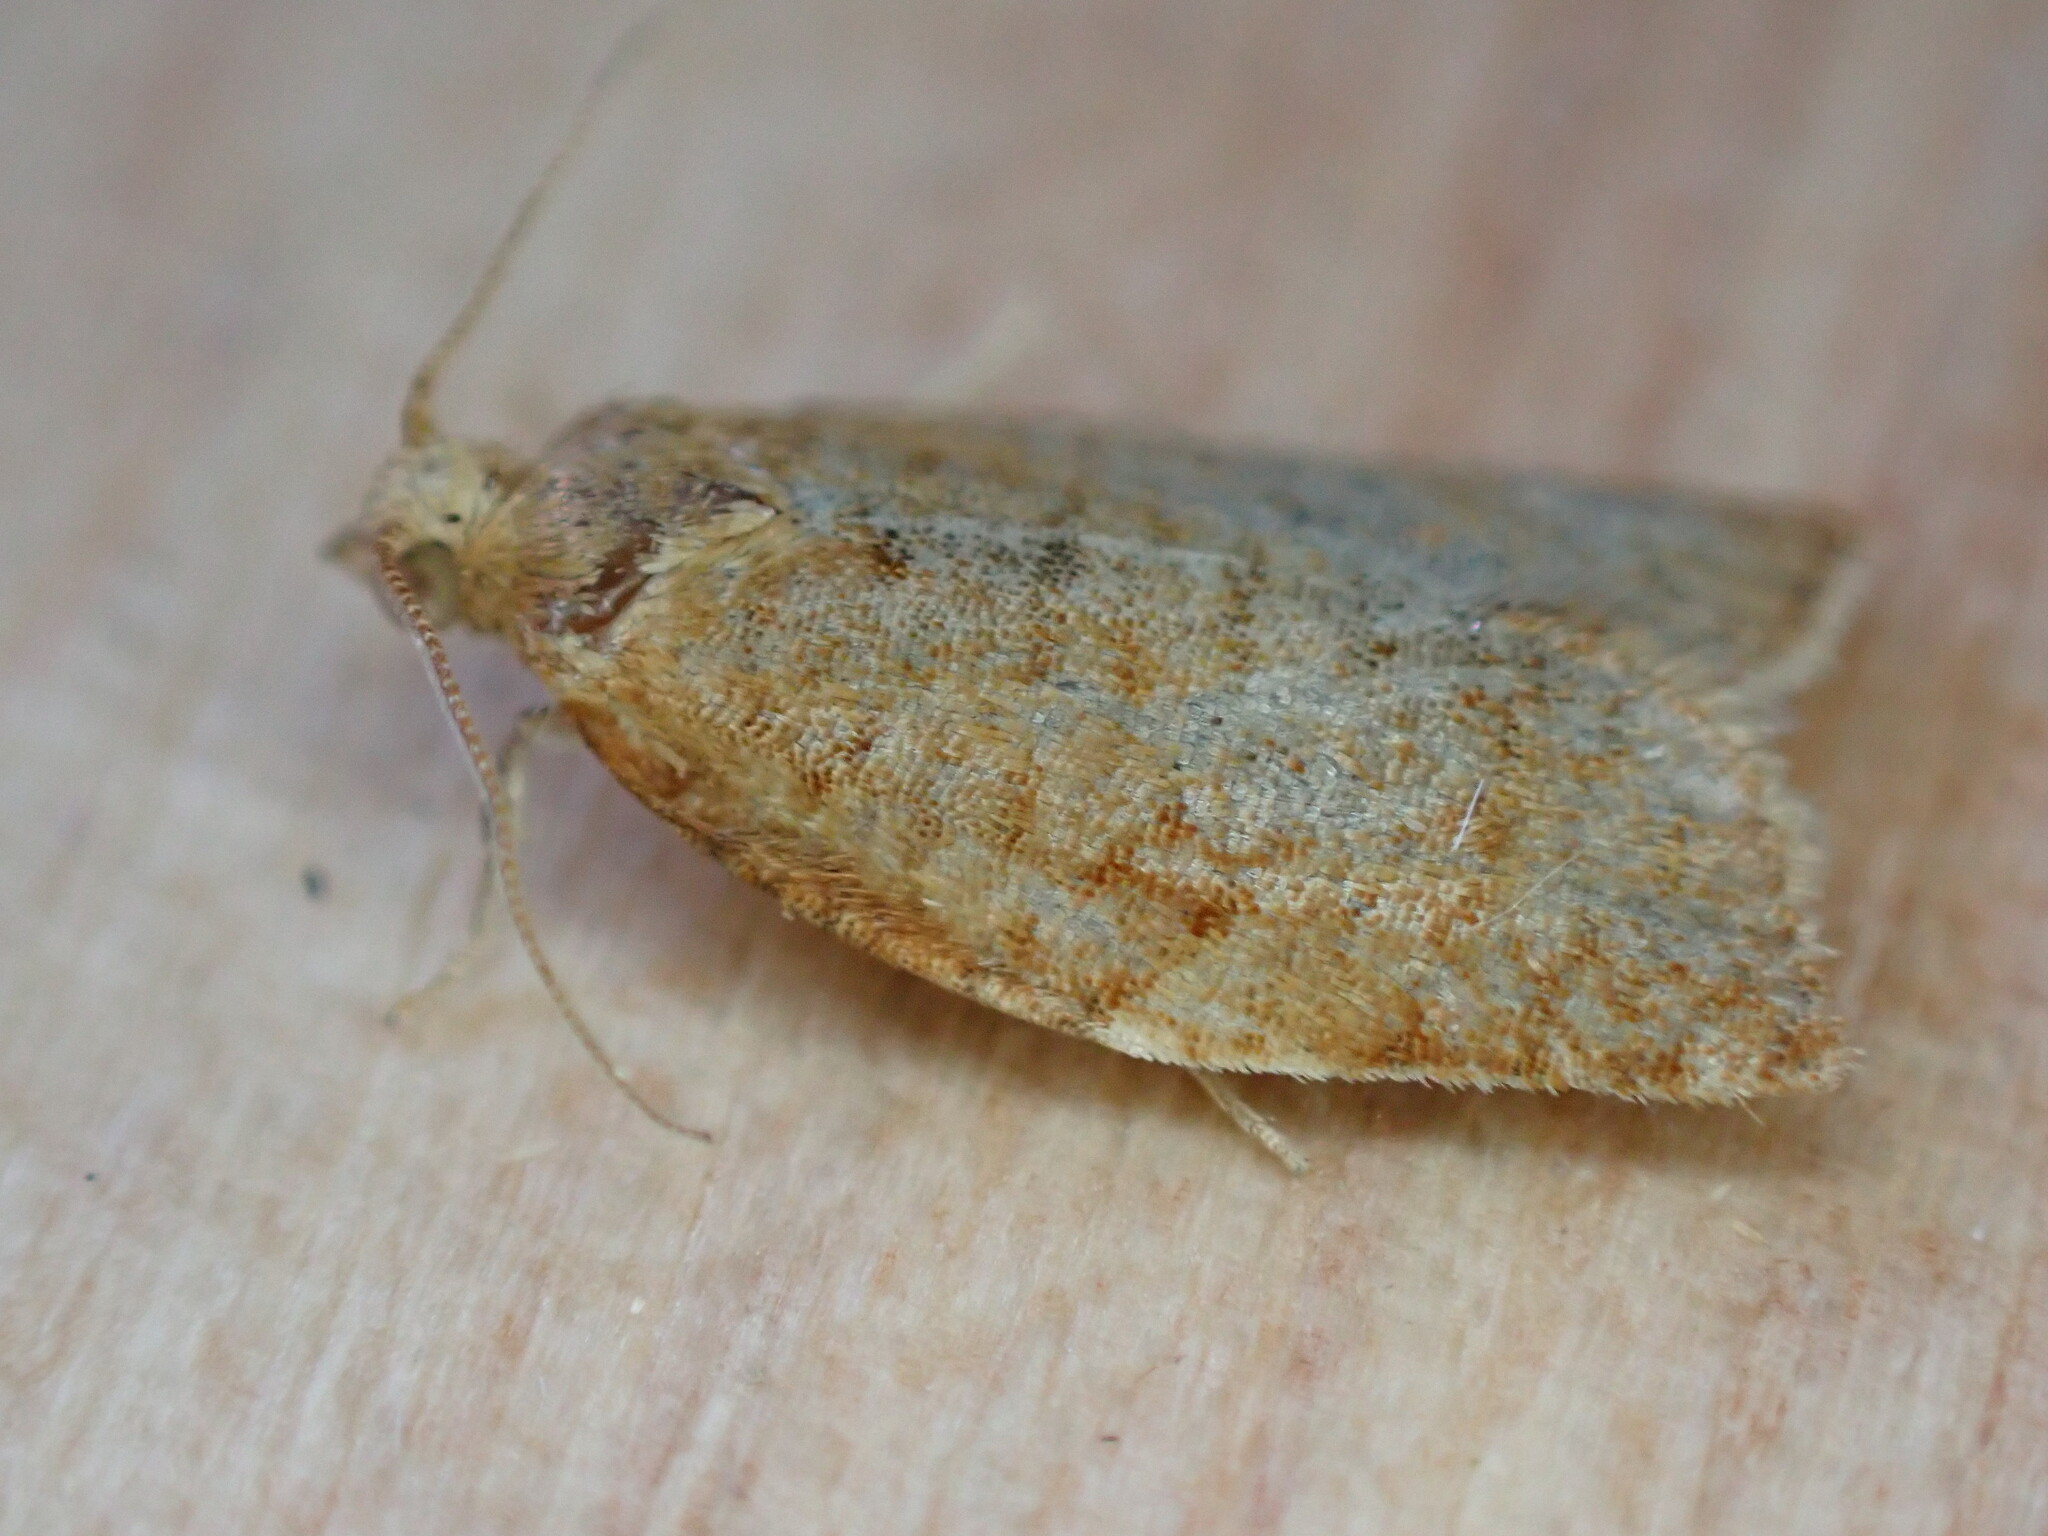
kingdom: Animalia
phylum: Arthropoda
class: Insecta
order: Lepidoptera
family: Tortricidae
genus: Clepsis
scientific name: Clepsis consimilana
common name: Privet tortrix
